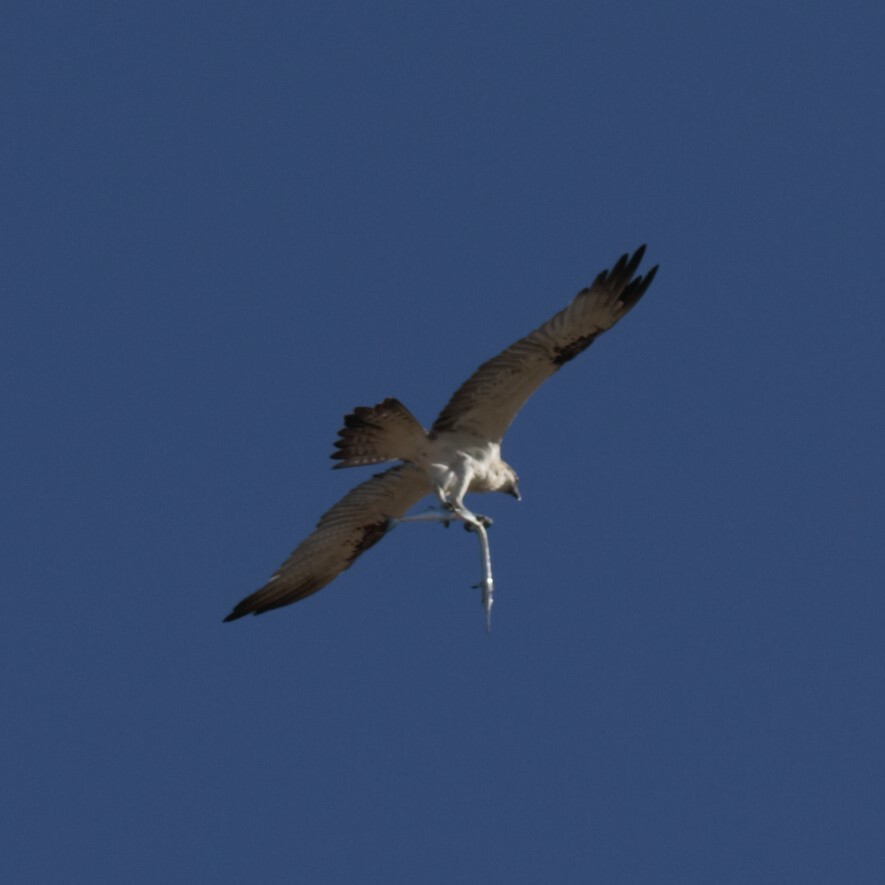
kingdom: Animalia
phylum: Chordata
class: Aves
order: Accipitriformes
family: Pandionidae
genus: Pandion
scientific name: Pandion haliaetus
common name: Osprey
